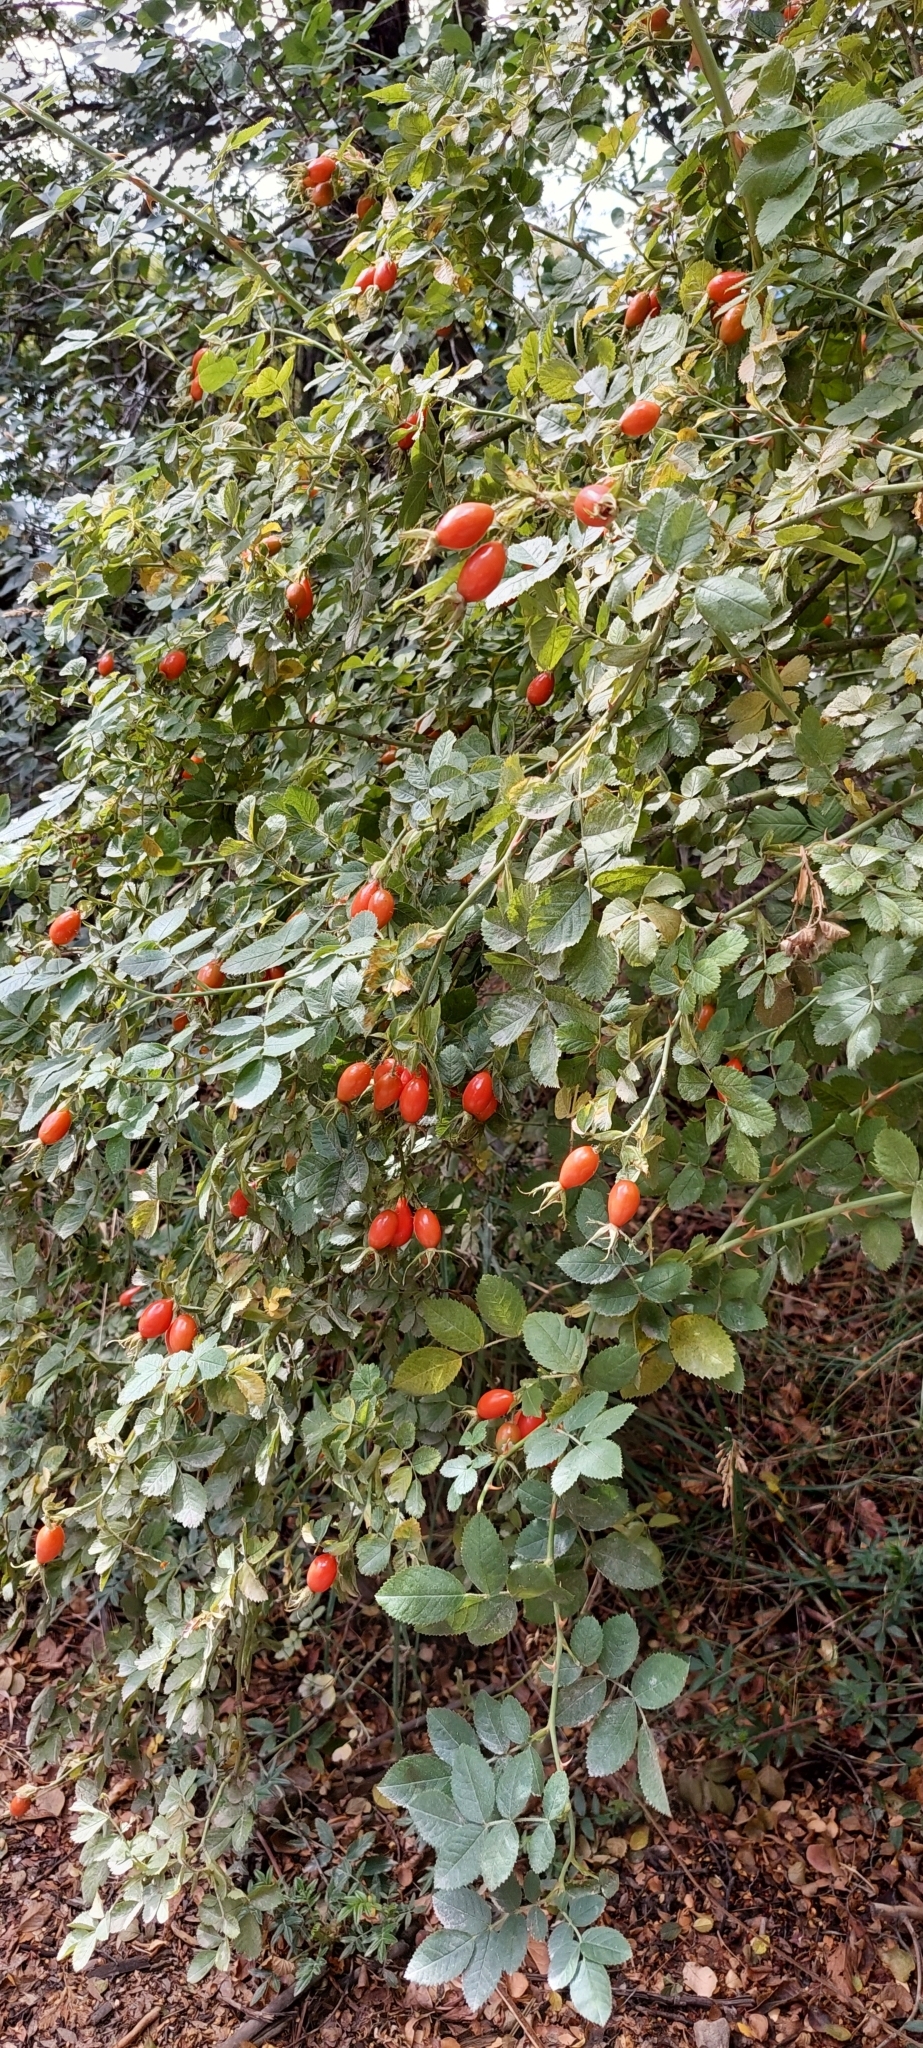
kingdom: Plantae
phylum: Tracheophyta
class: Magnoliopsida
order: Rosales
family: Rosaceae
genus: Rosa
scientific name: Rosa rubiginosa
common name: Sweet-briar
